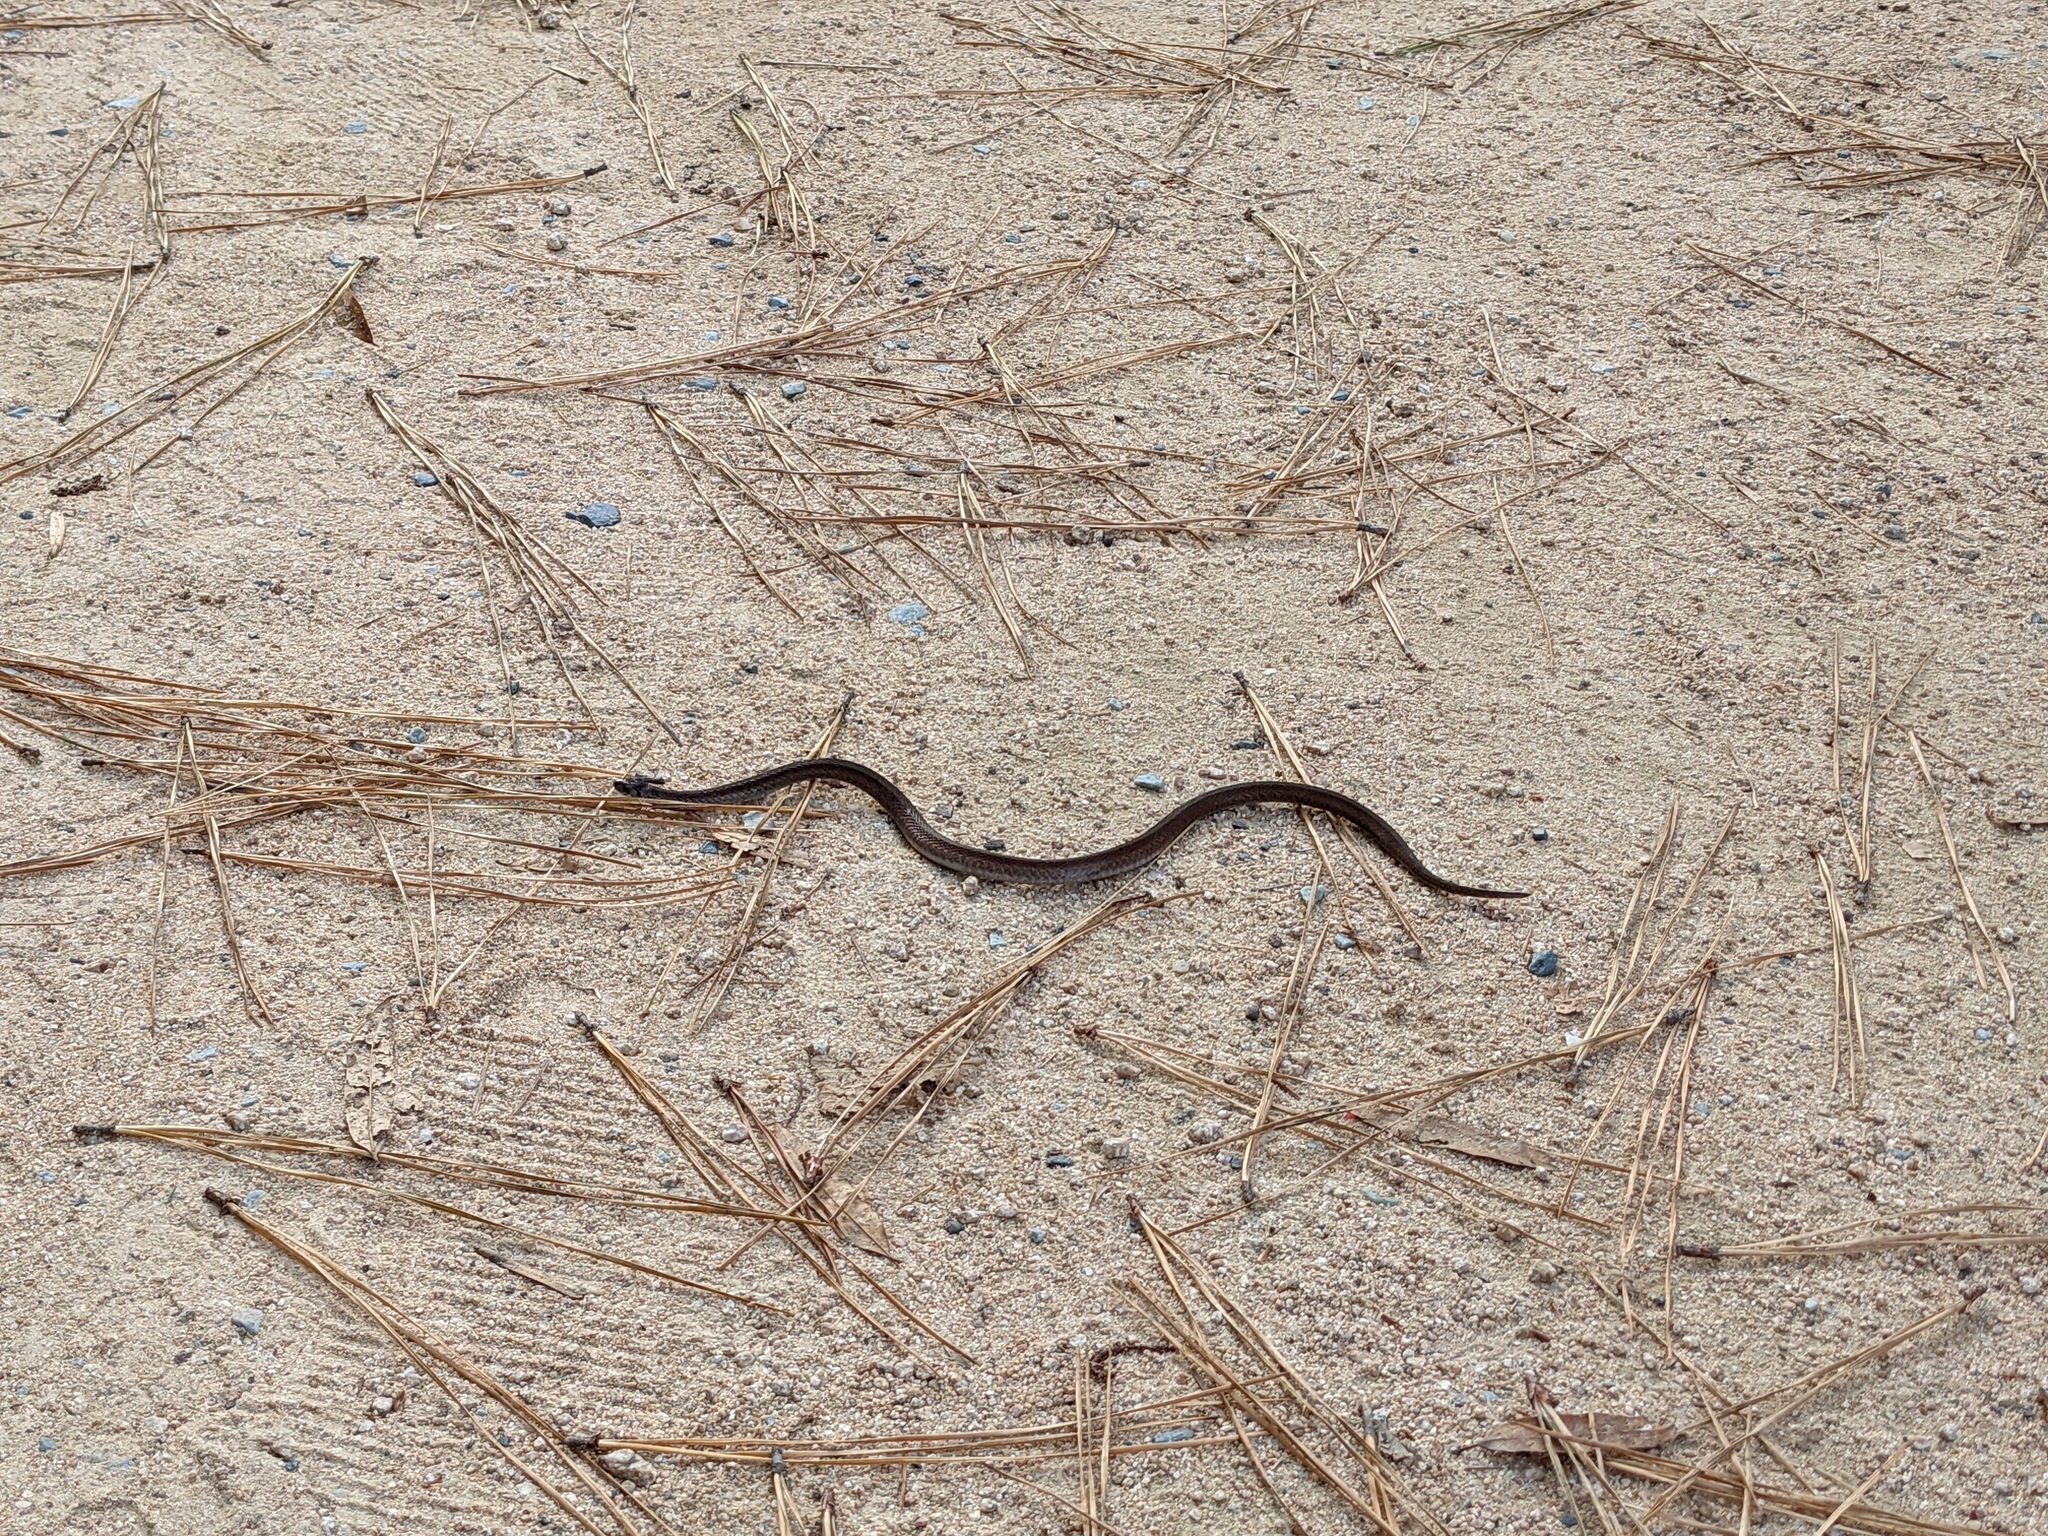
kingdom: Animalia
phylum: Chordata
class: Squamata
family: Colubridae
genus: Storeria
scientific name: Storeria dekayi
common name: (dekay’s) brown snake
